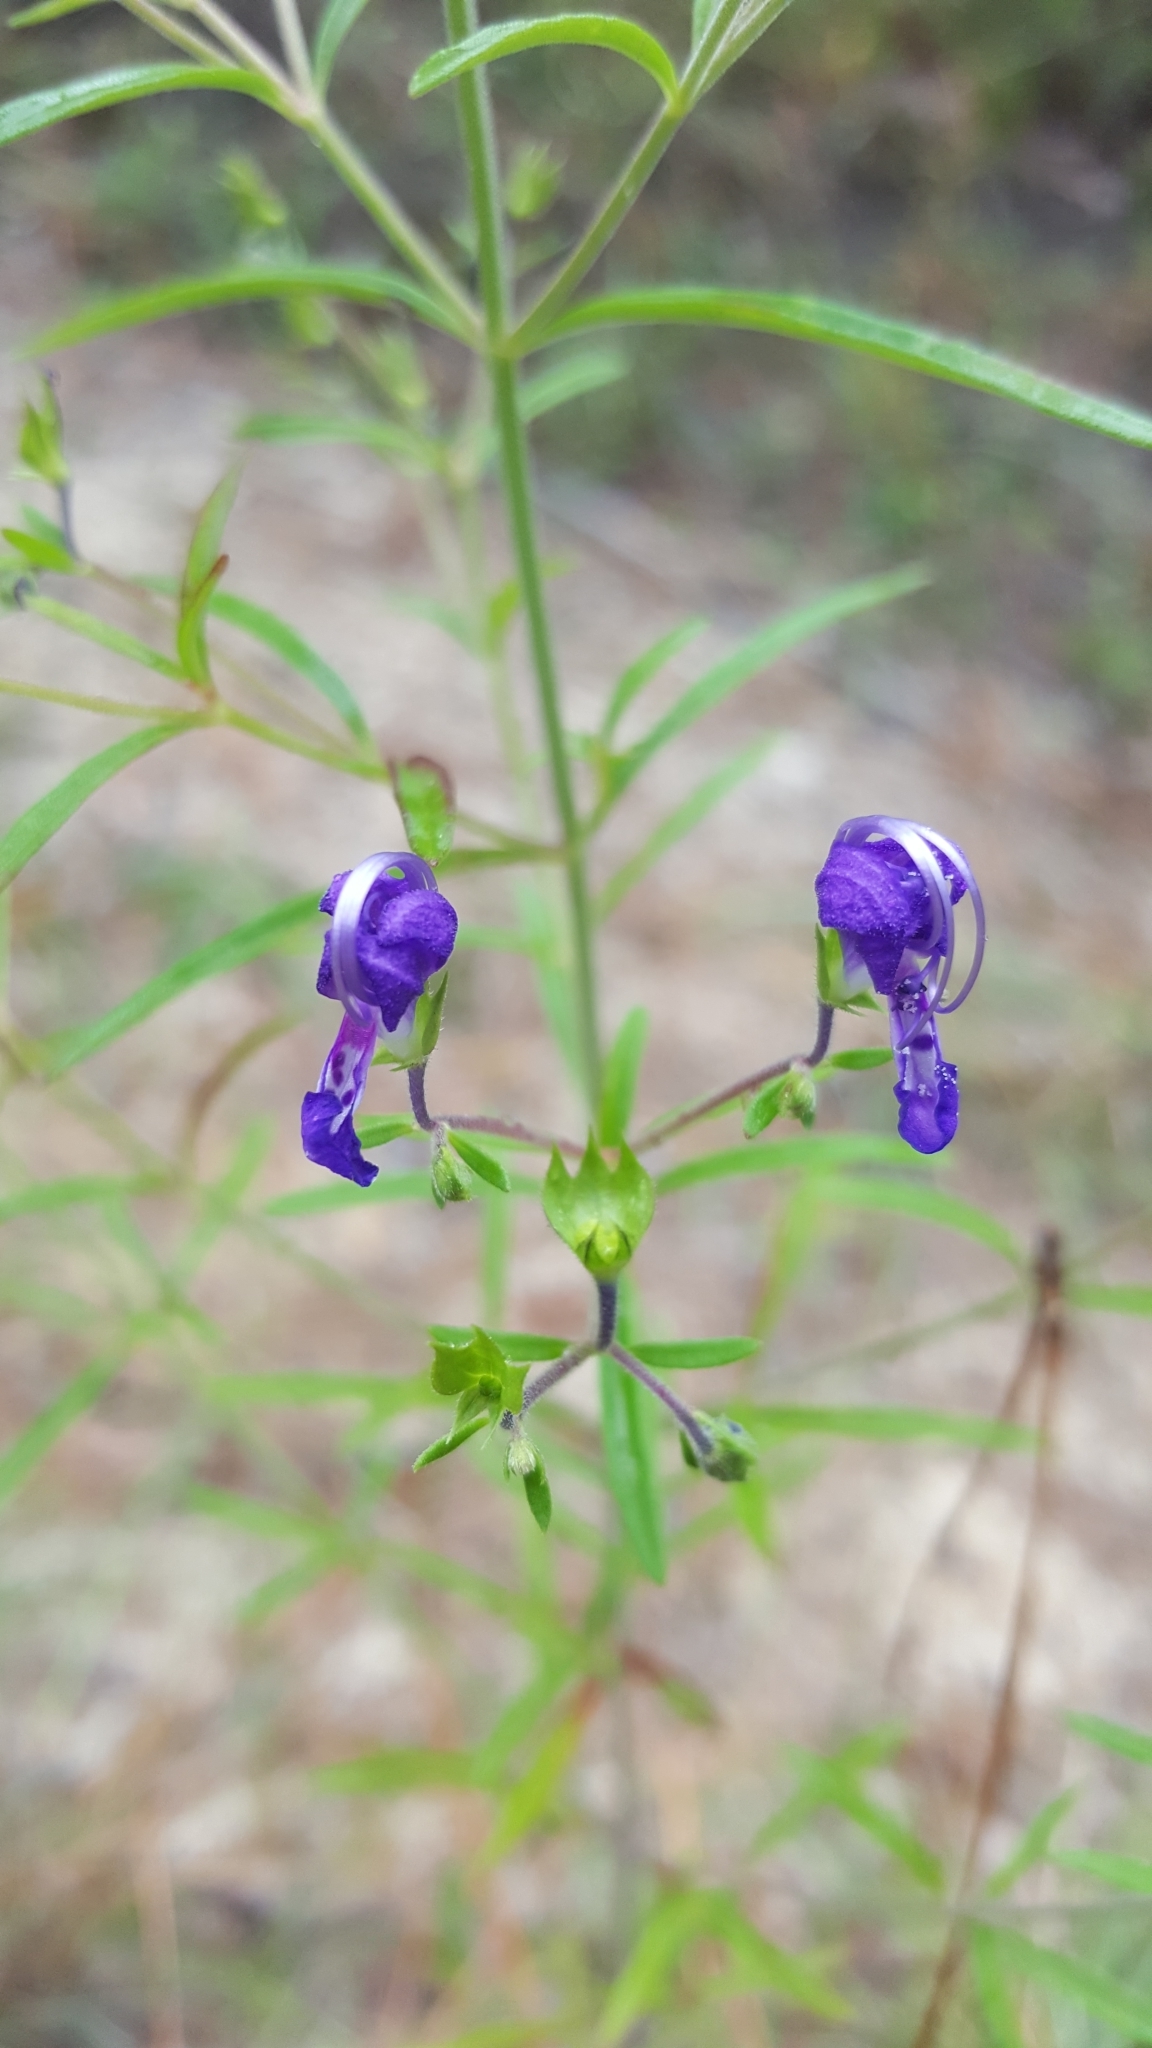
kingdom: Plantae
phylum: Tracheophyta
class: Magnoliopsida
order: Lamiales
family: Lamiaceae
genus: Trichostema
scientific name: Trichostema setaceum
